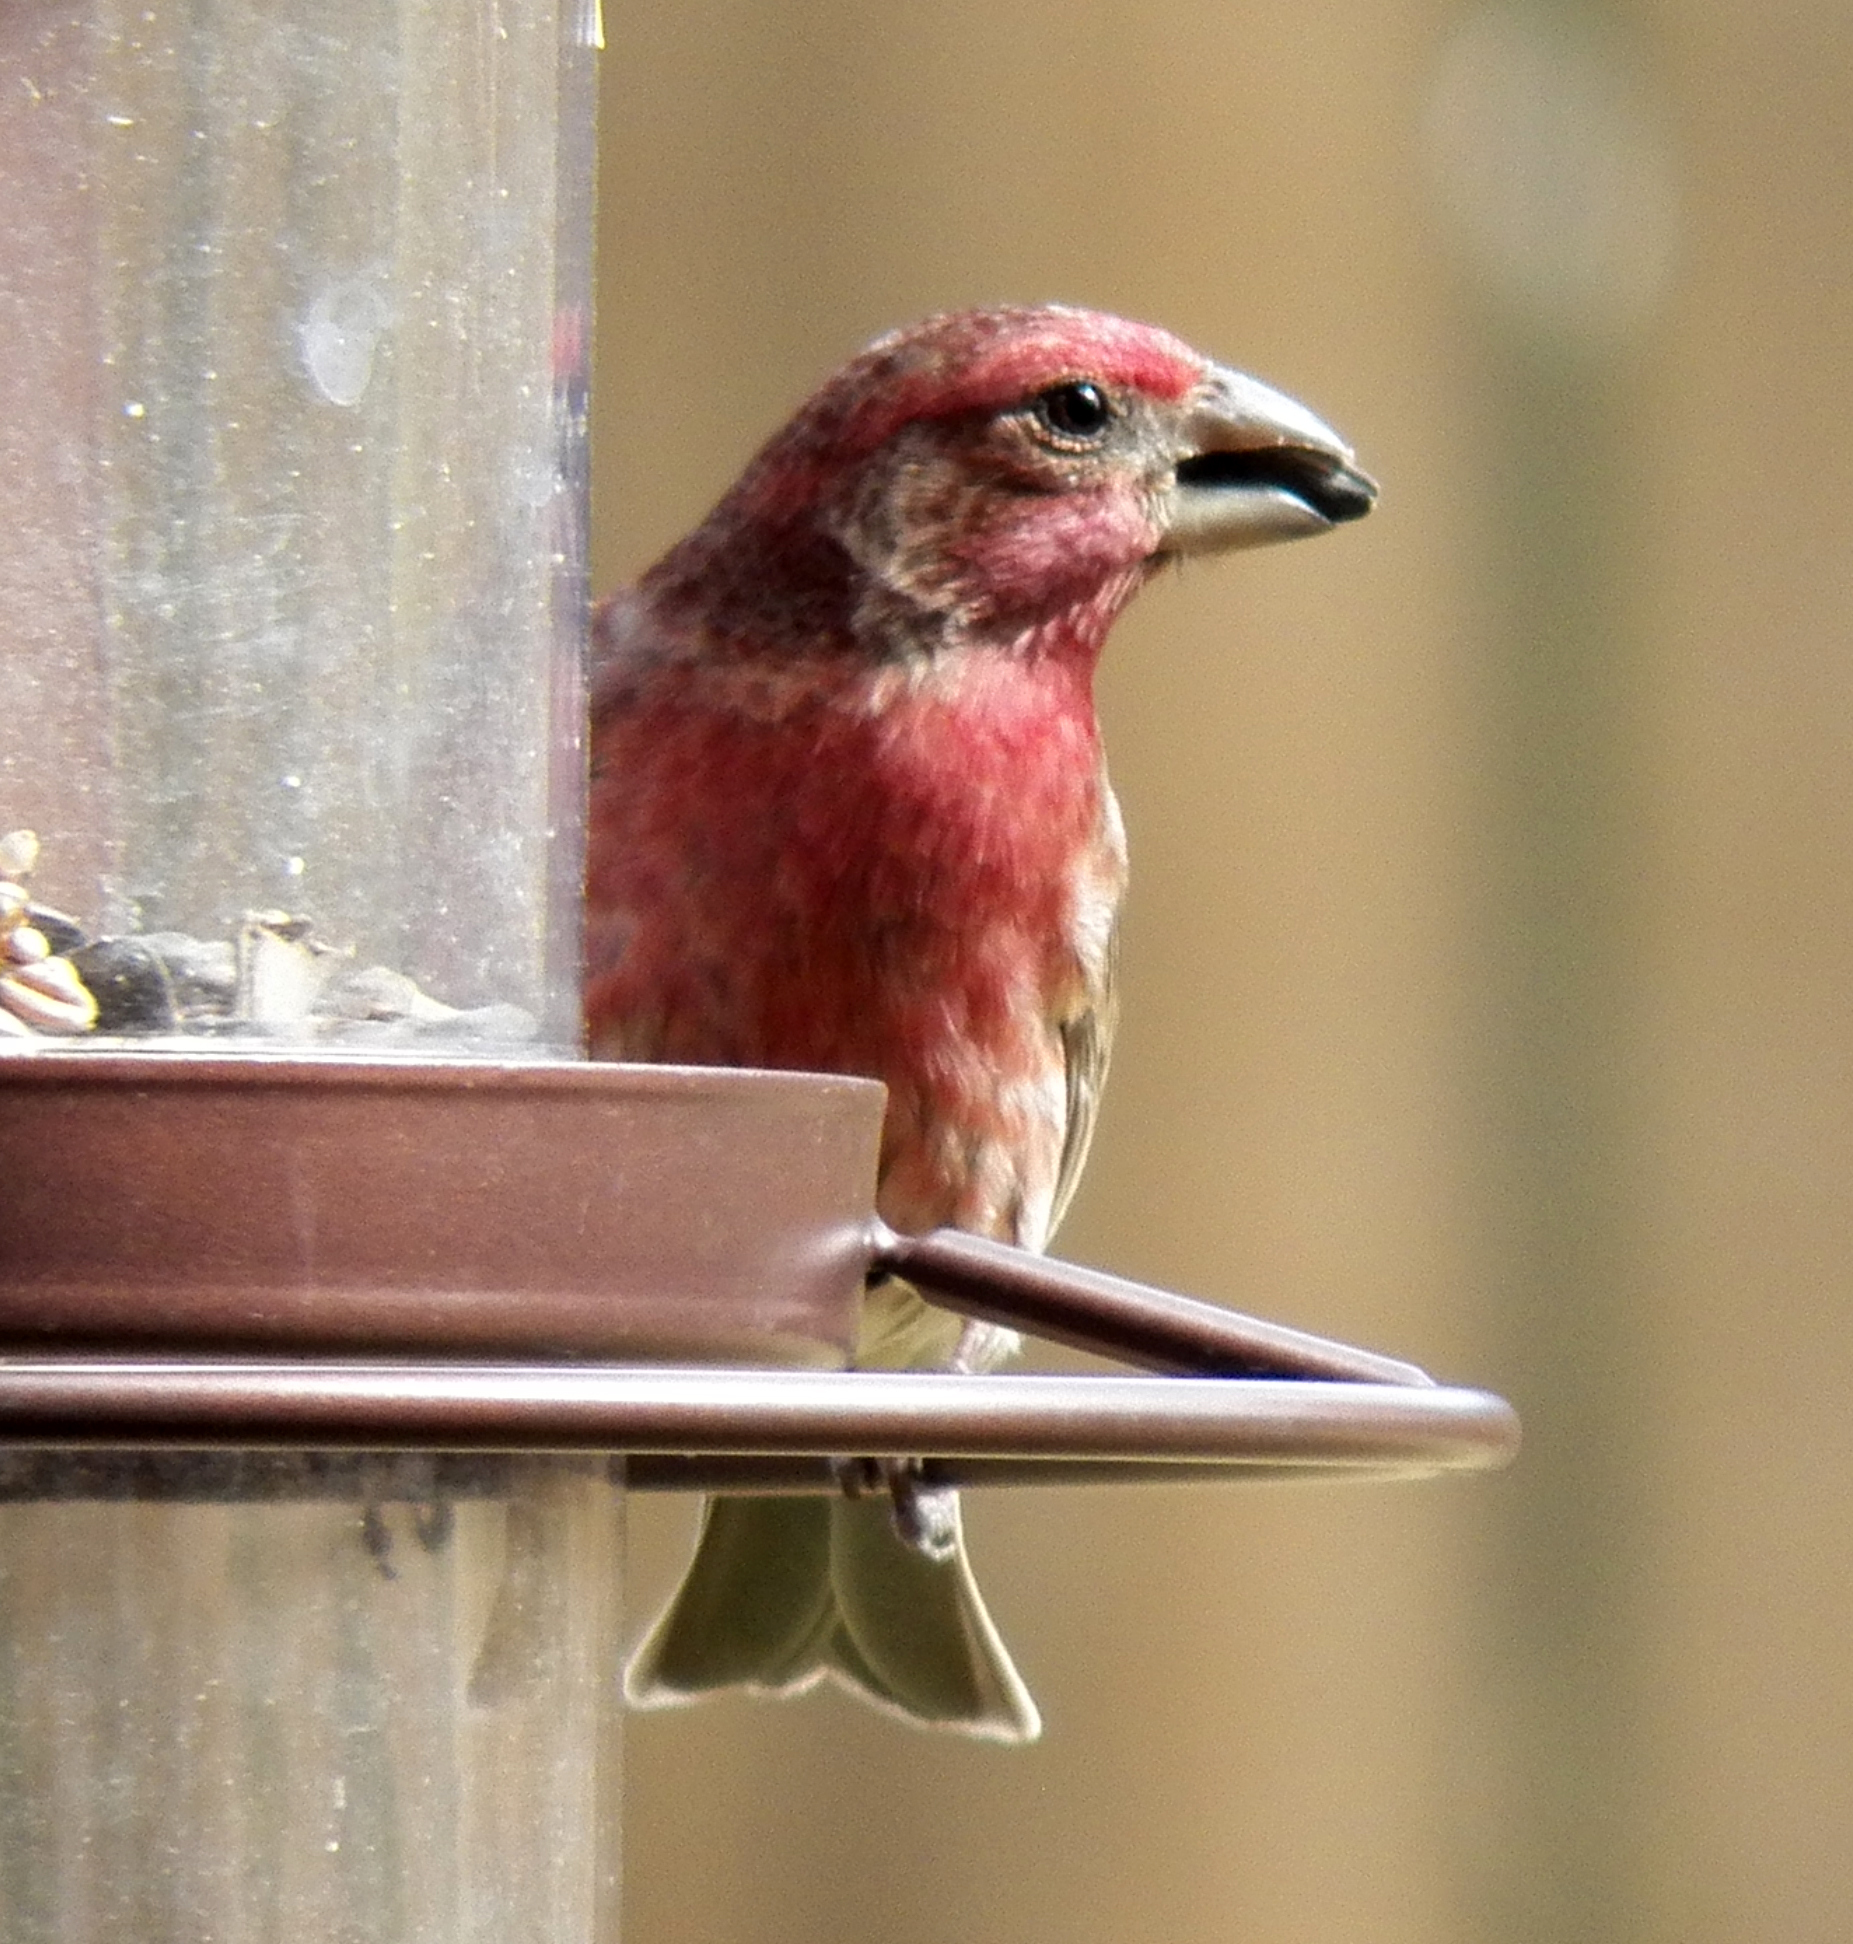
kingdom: Animalia
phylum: Chordata
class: Aves
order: Passeriformes
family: Fringillidae
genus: Haemorhous
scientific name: Haemorhous mexicanus
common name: House finch
